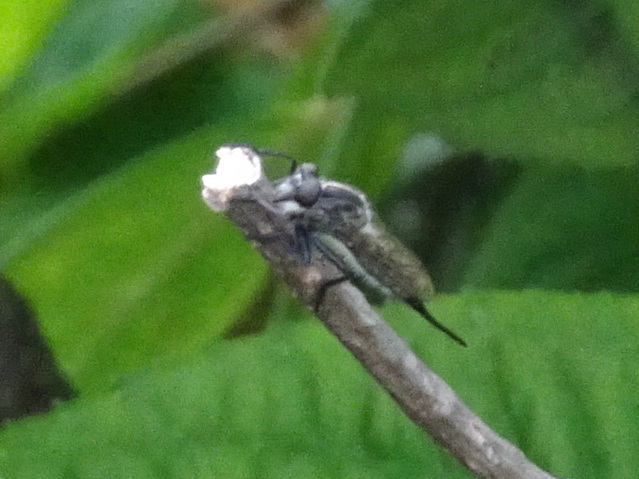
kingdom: Animalia
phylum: Arthropoda
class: Insecta
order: Diptera
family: Asilidae
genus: Efferia
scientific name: Efferia aestuans
